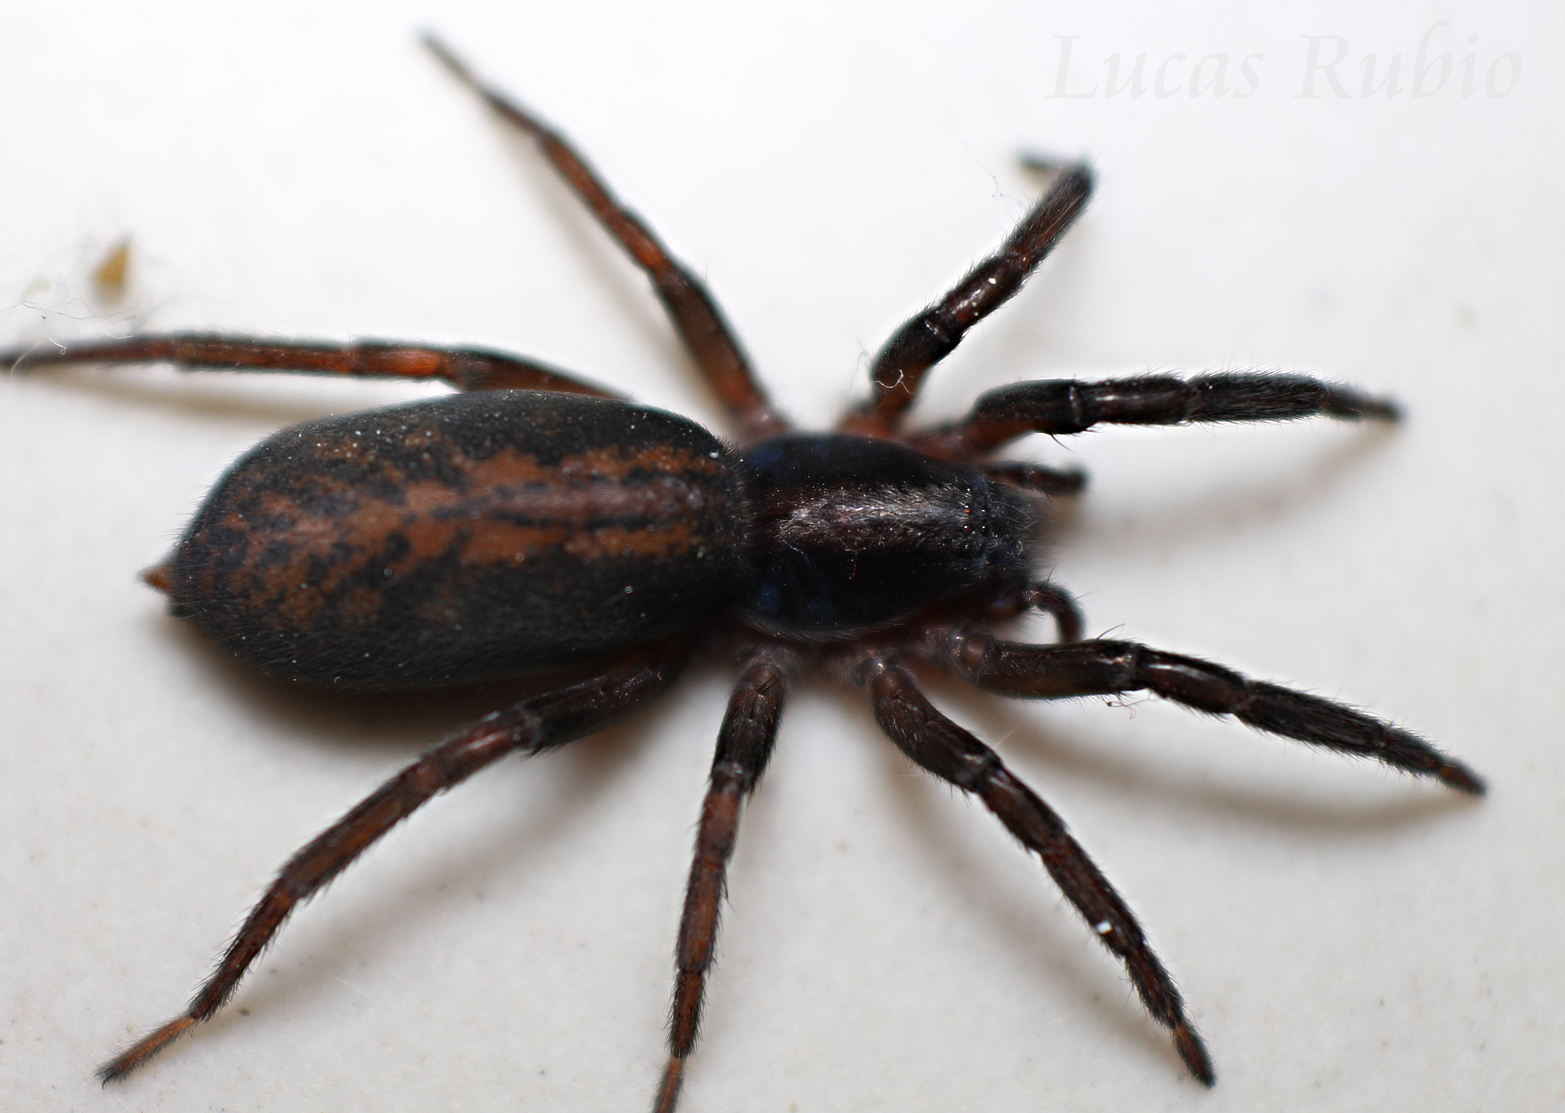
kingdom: Animalia
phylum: Arthropoda
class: Arachnida
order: Araneae
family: Miturgidae
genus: Teminius
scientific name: Teminius insularis
